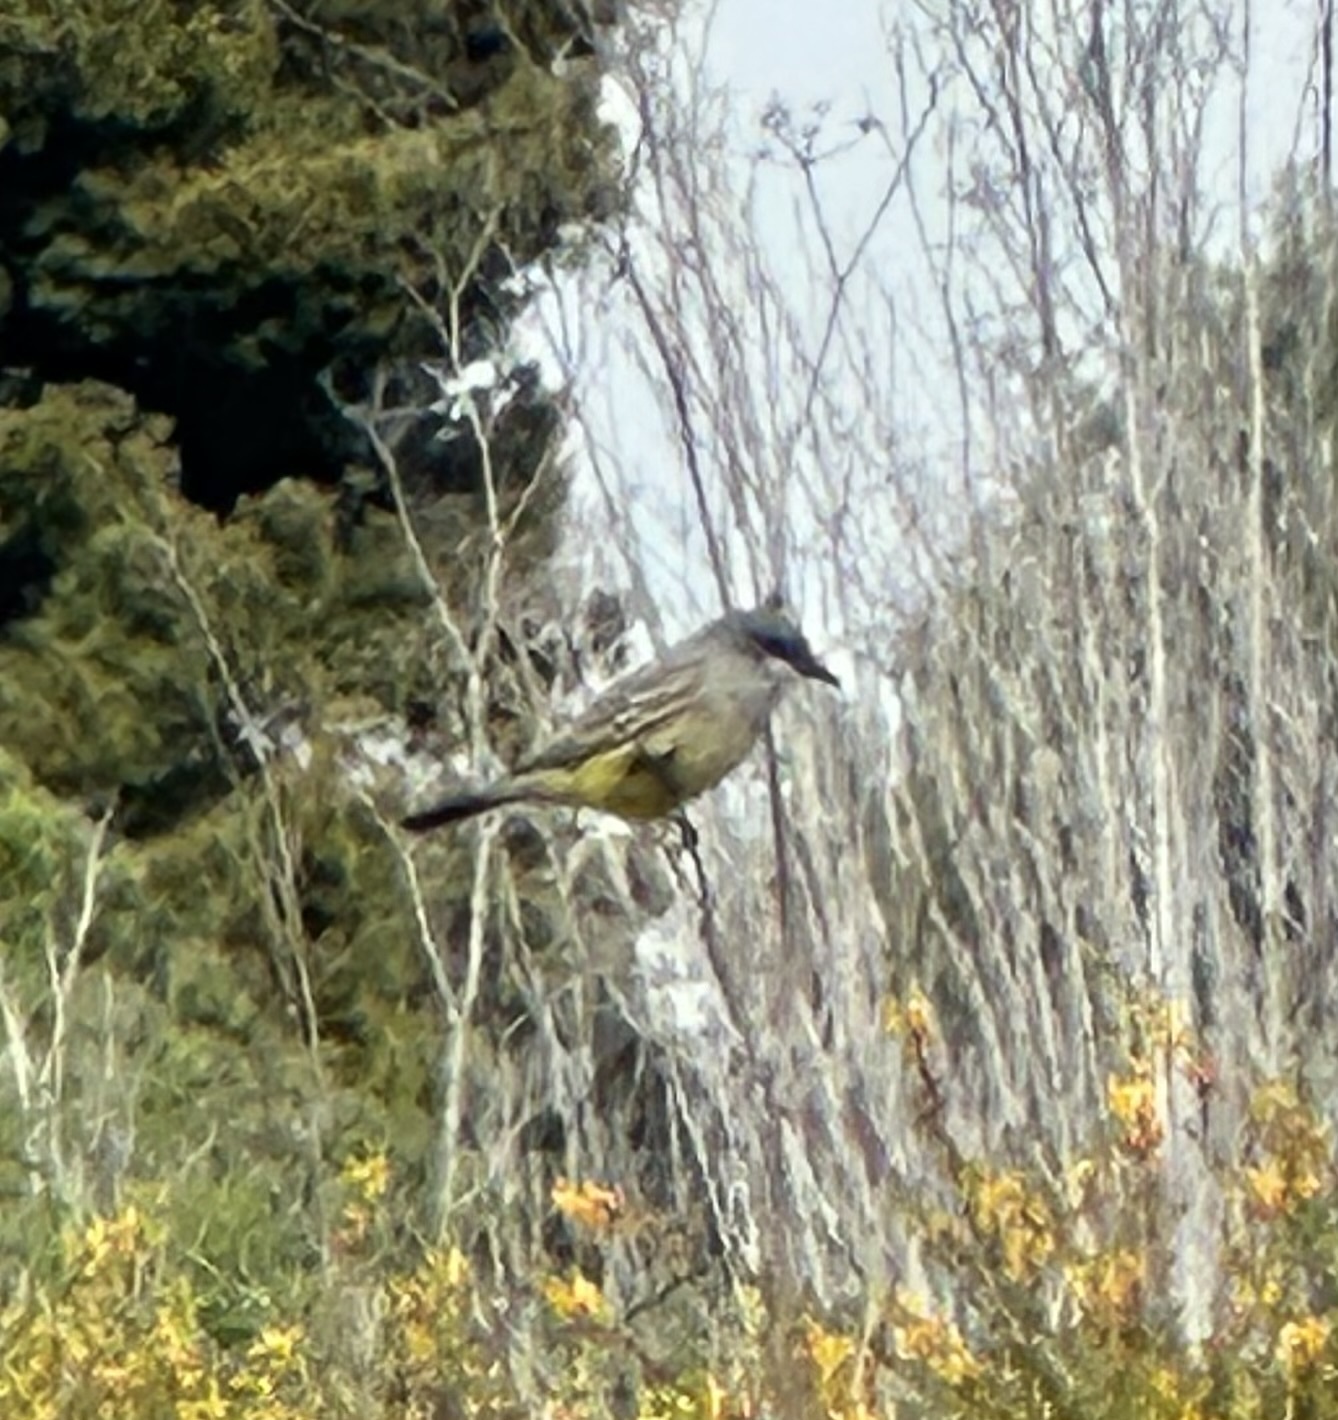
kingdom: Animalia
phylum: Chordata
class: Aves
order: Passeriformes
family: Tyrannidae
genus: Tyrannus
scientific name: Tyrannus vociferans
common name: Cassin's kingbird
